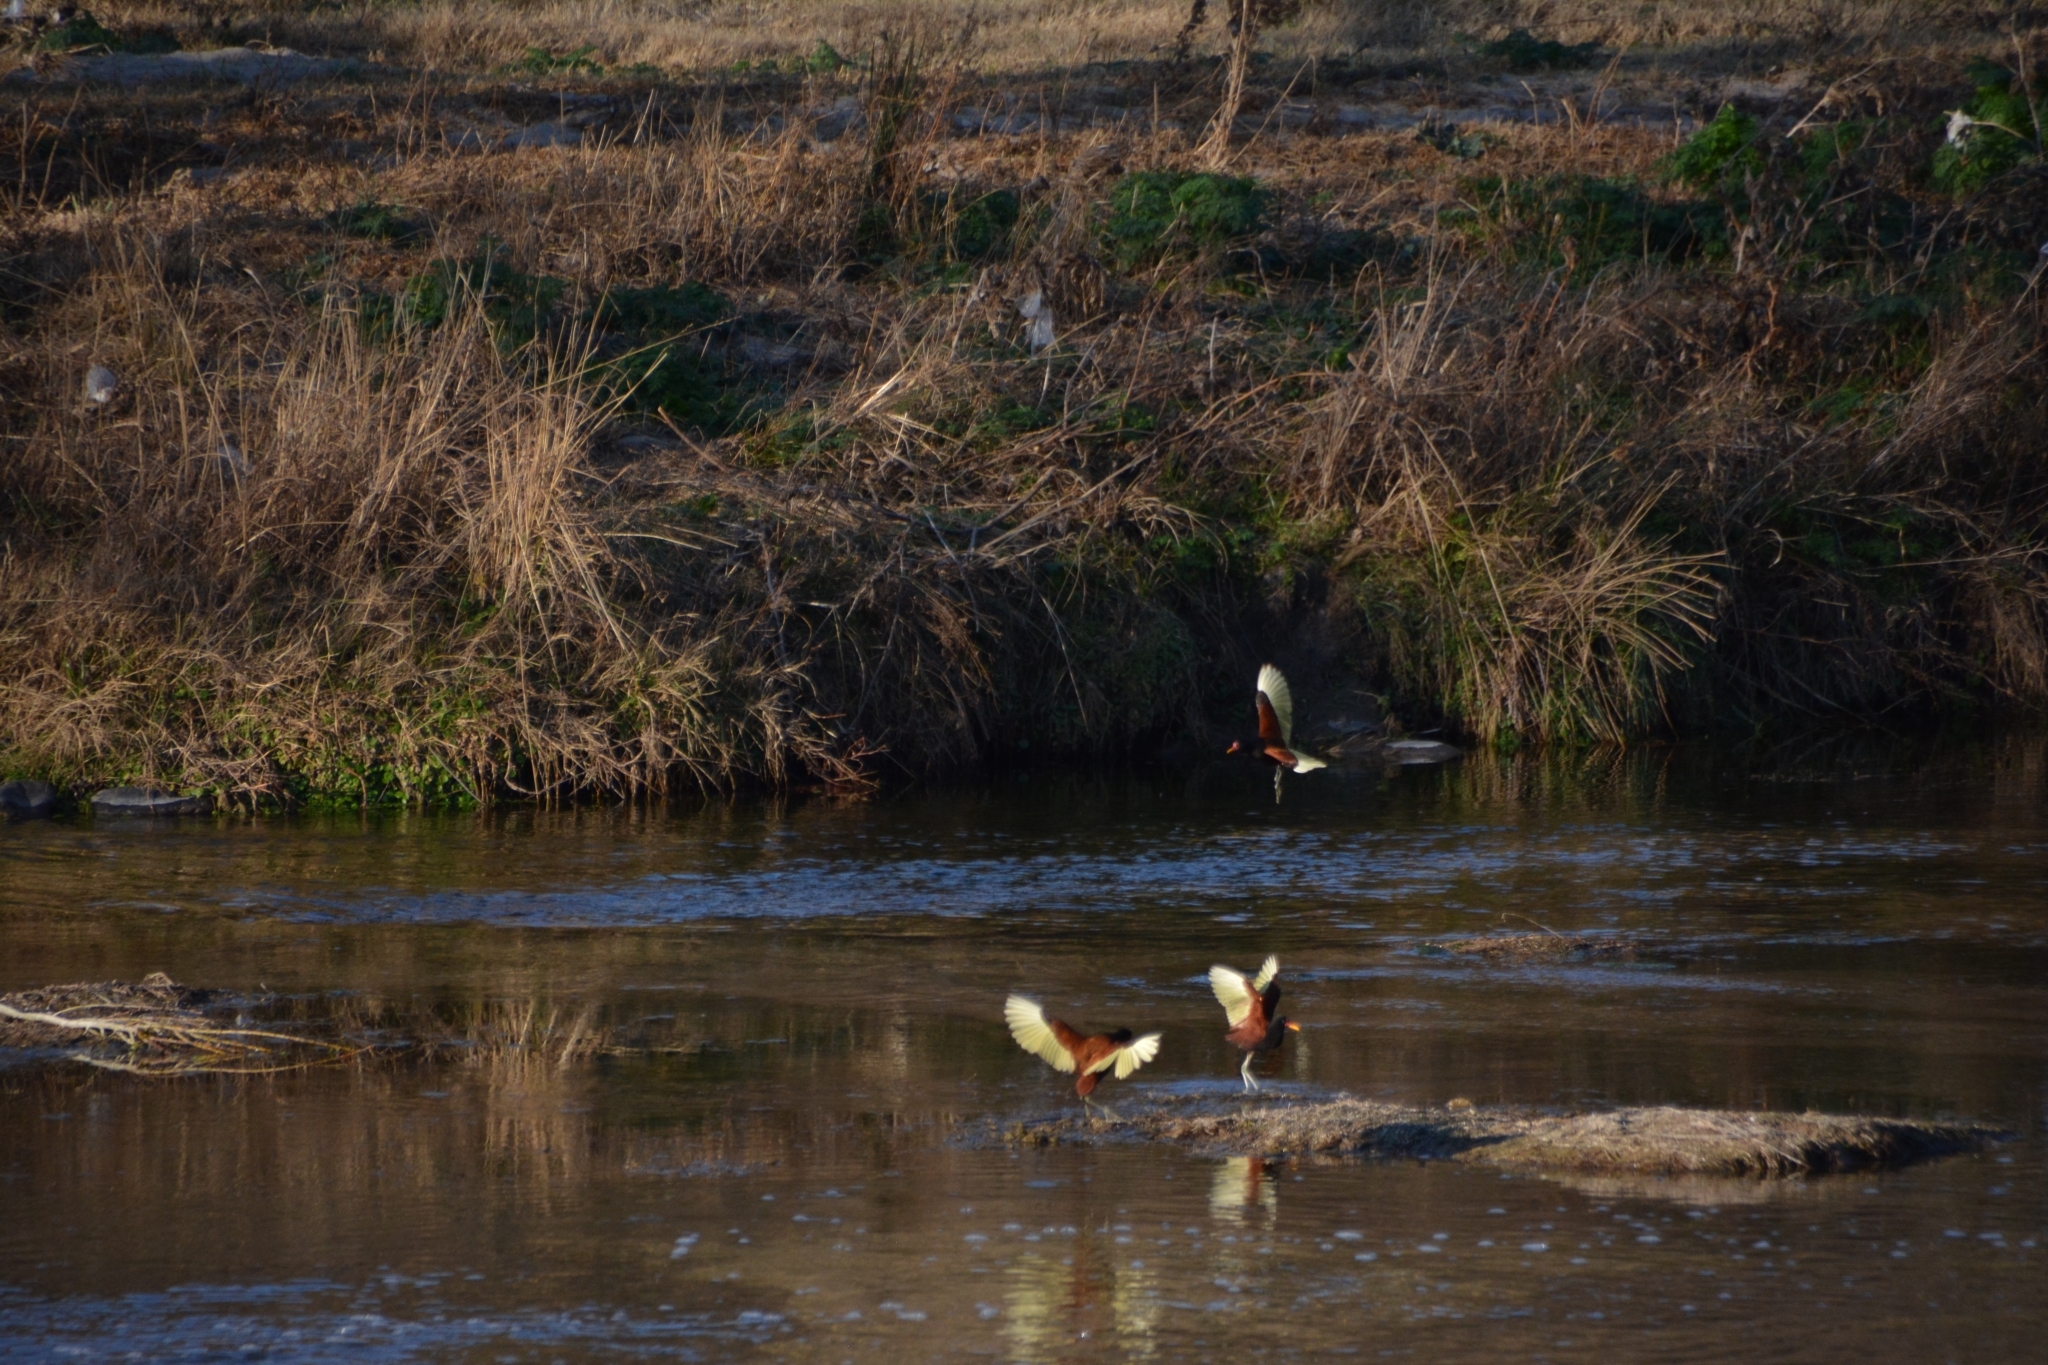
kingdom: Animalia
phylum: Chordata
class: Aves
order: Charadriiformes
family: Jacanidae
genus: Jacana
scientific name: Jacana jacana
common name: Wattled jacana
